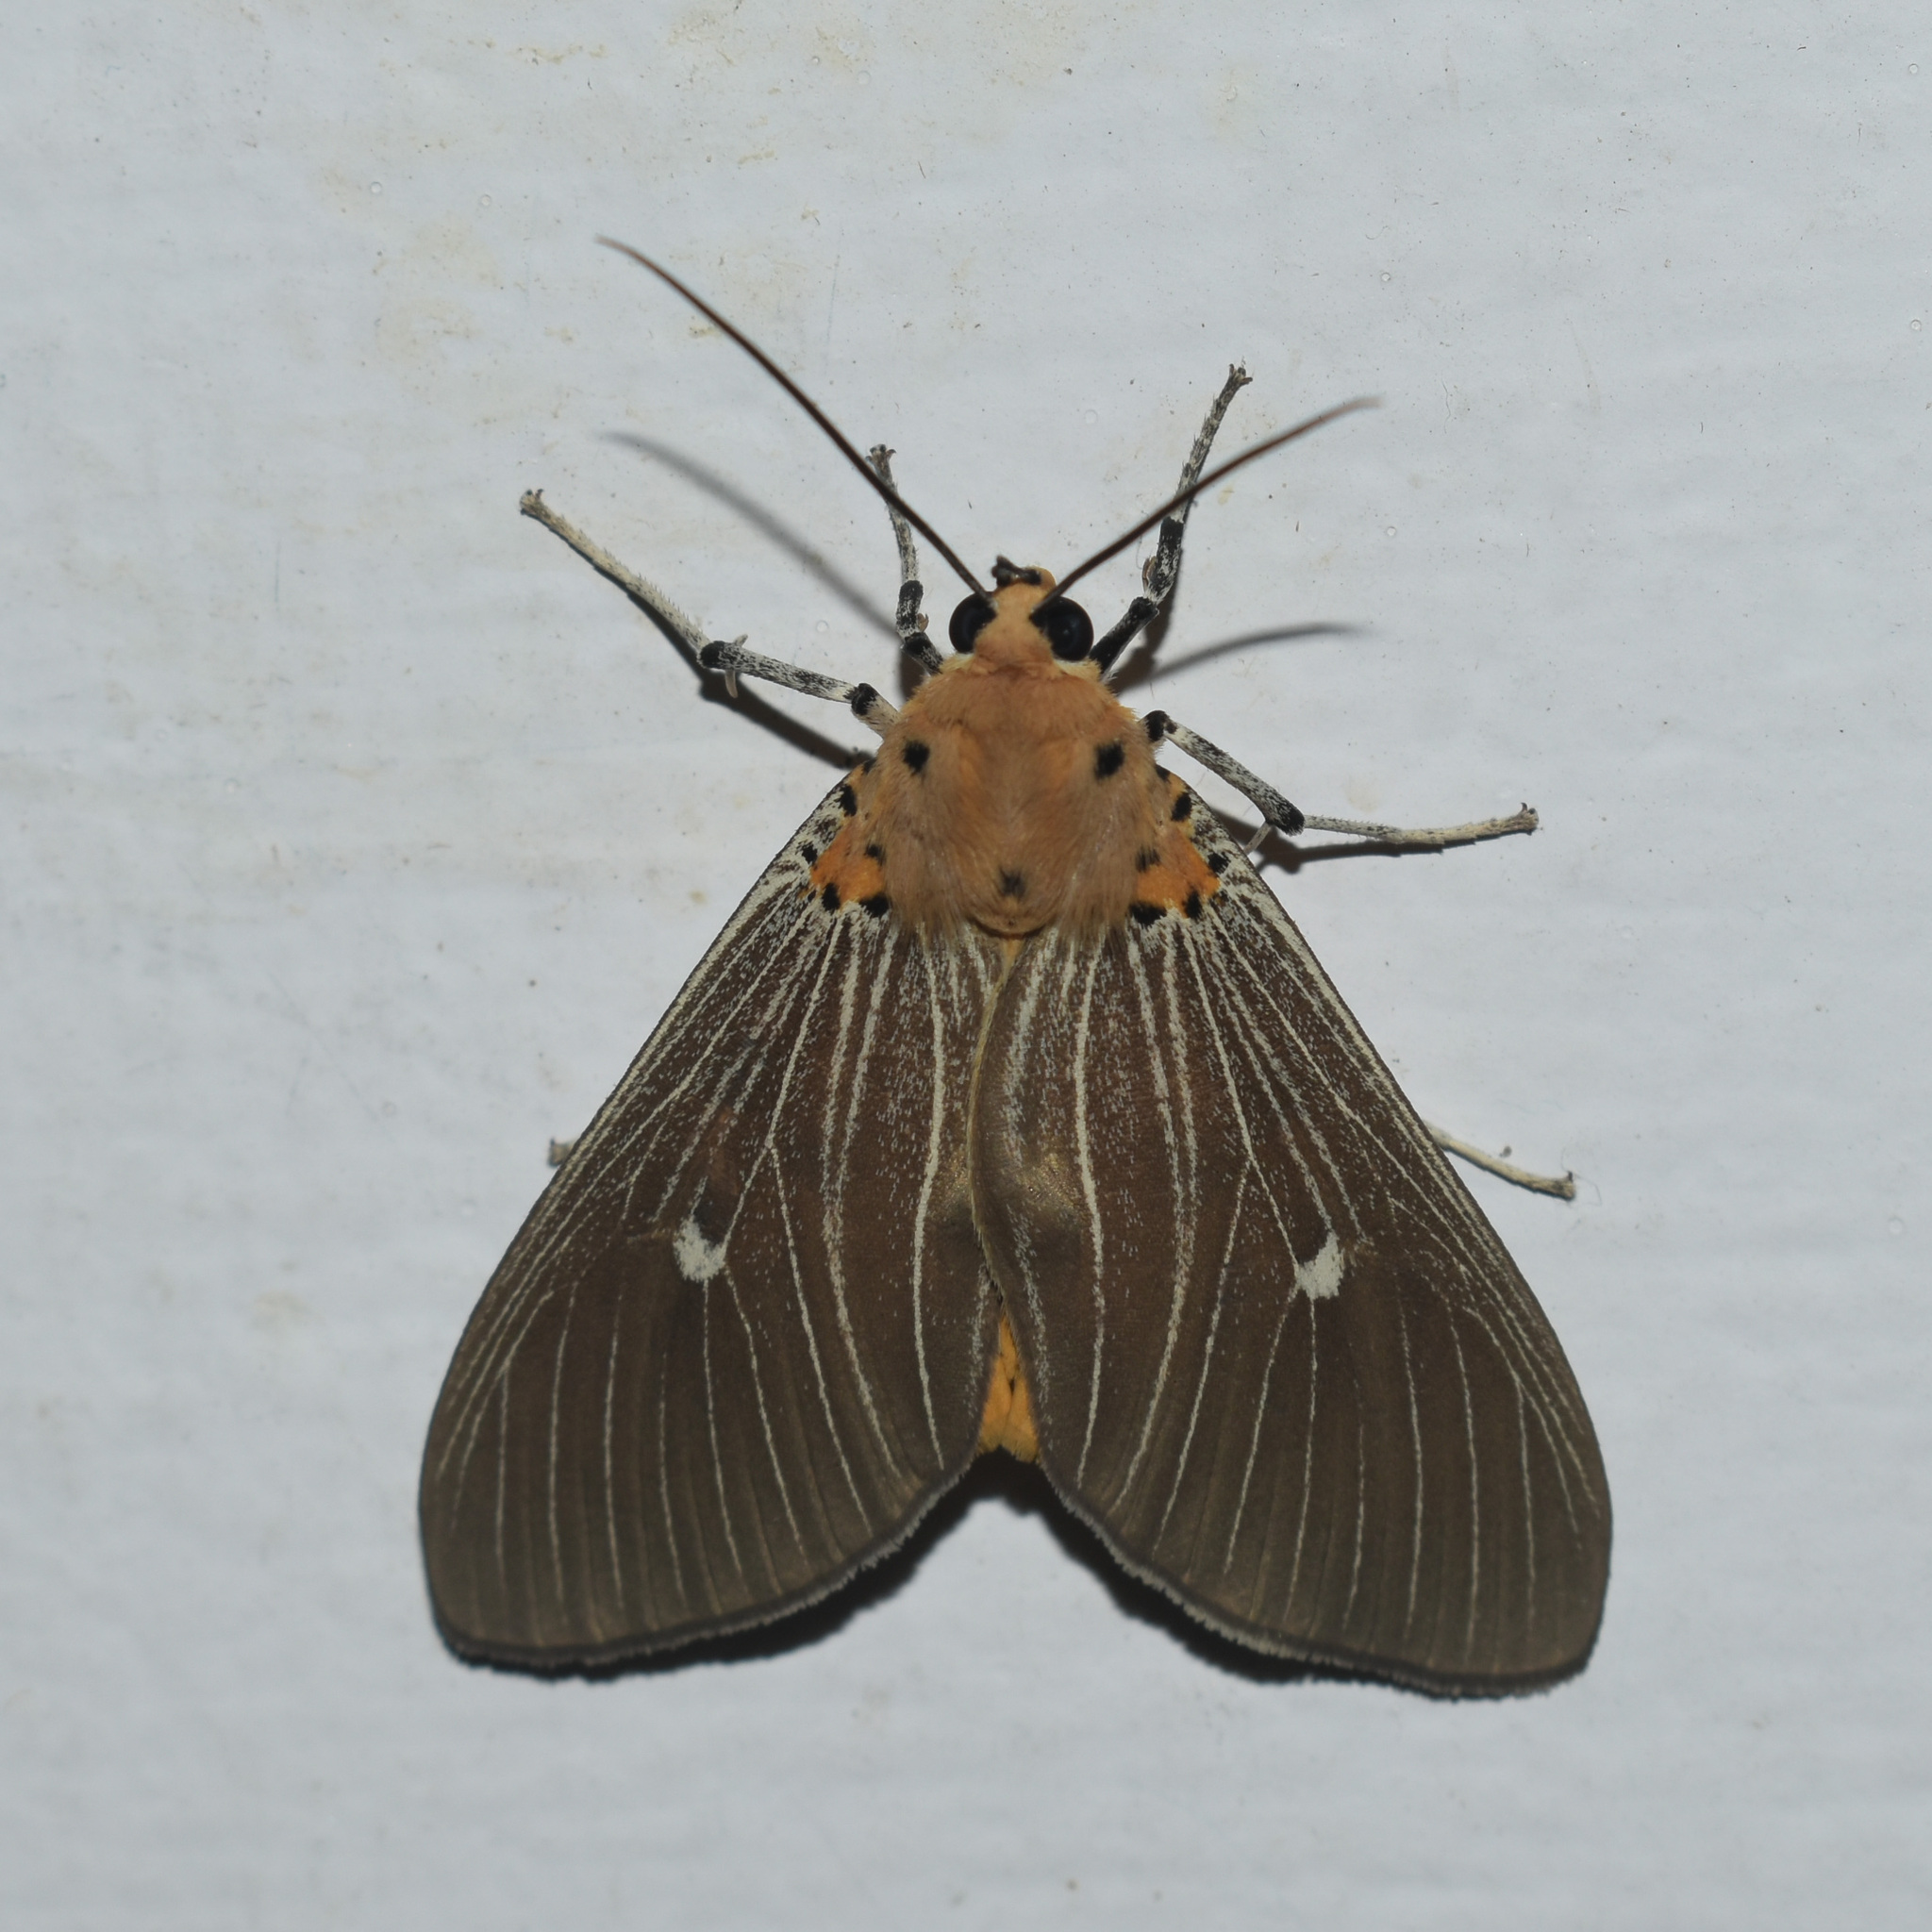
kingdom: Animalia
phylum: Arthropoda
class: Insecta
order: Lepidoptera
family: Erebidae
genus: Asota
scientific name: Asota caricae
